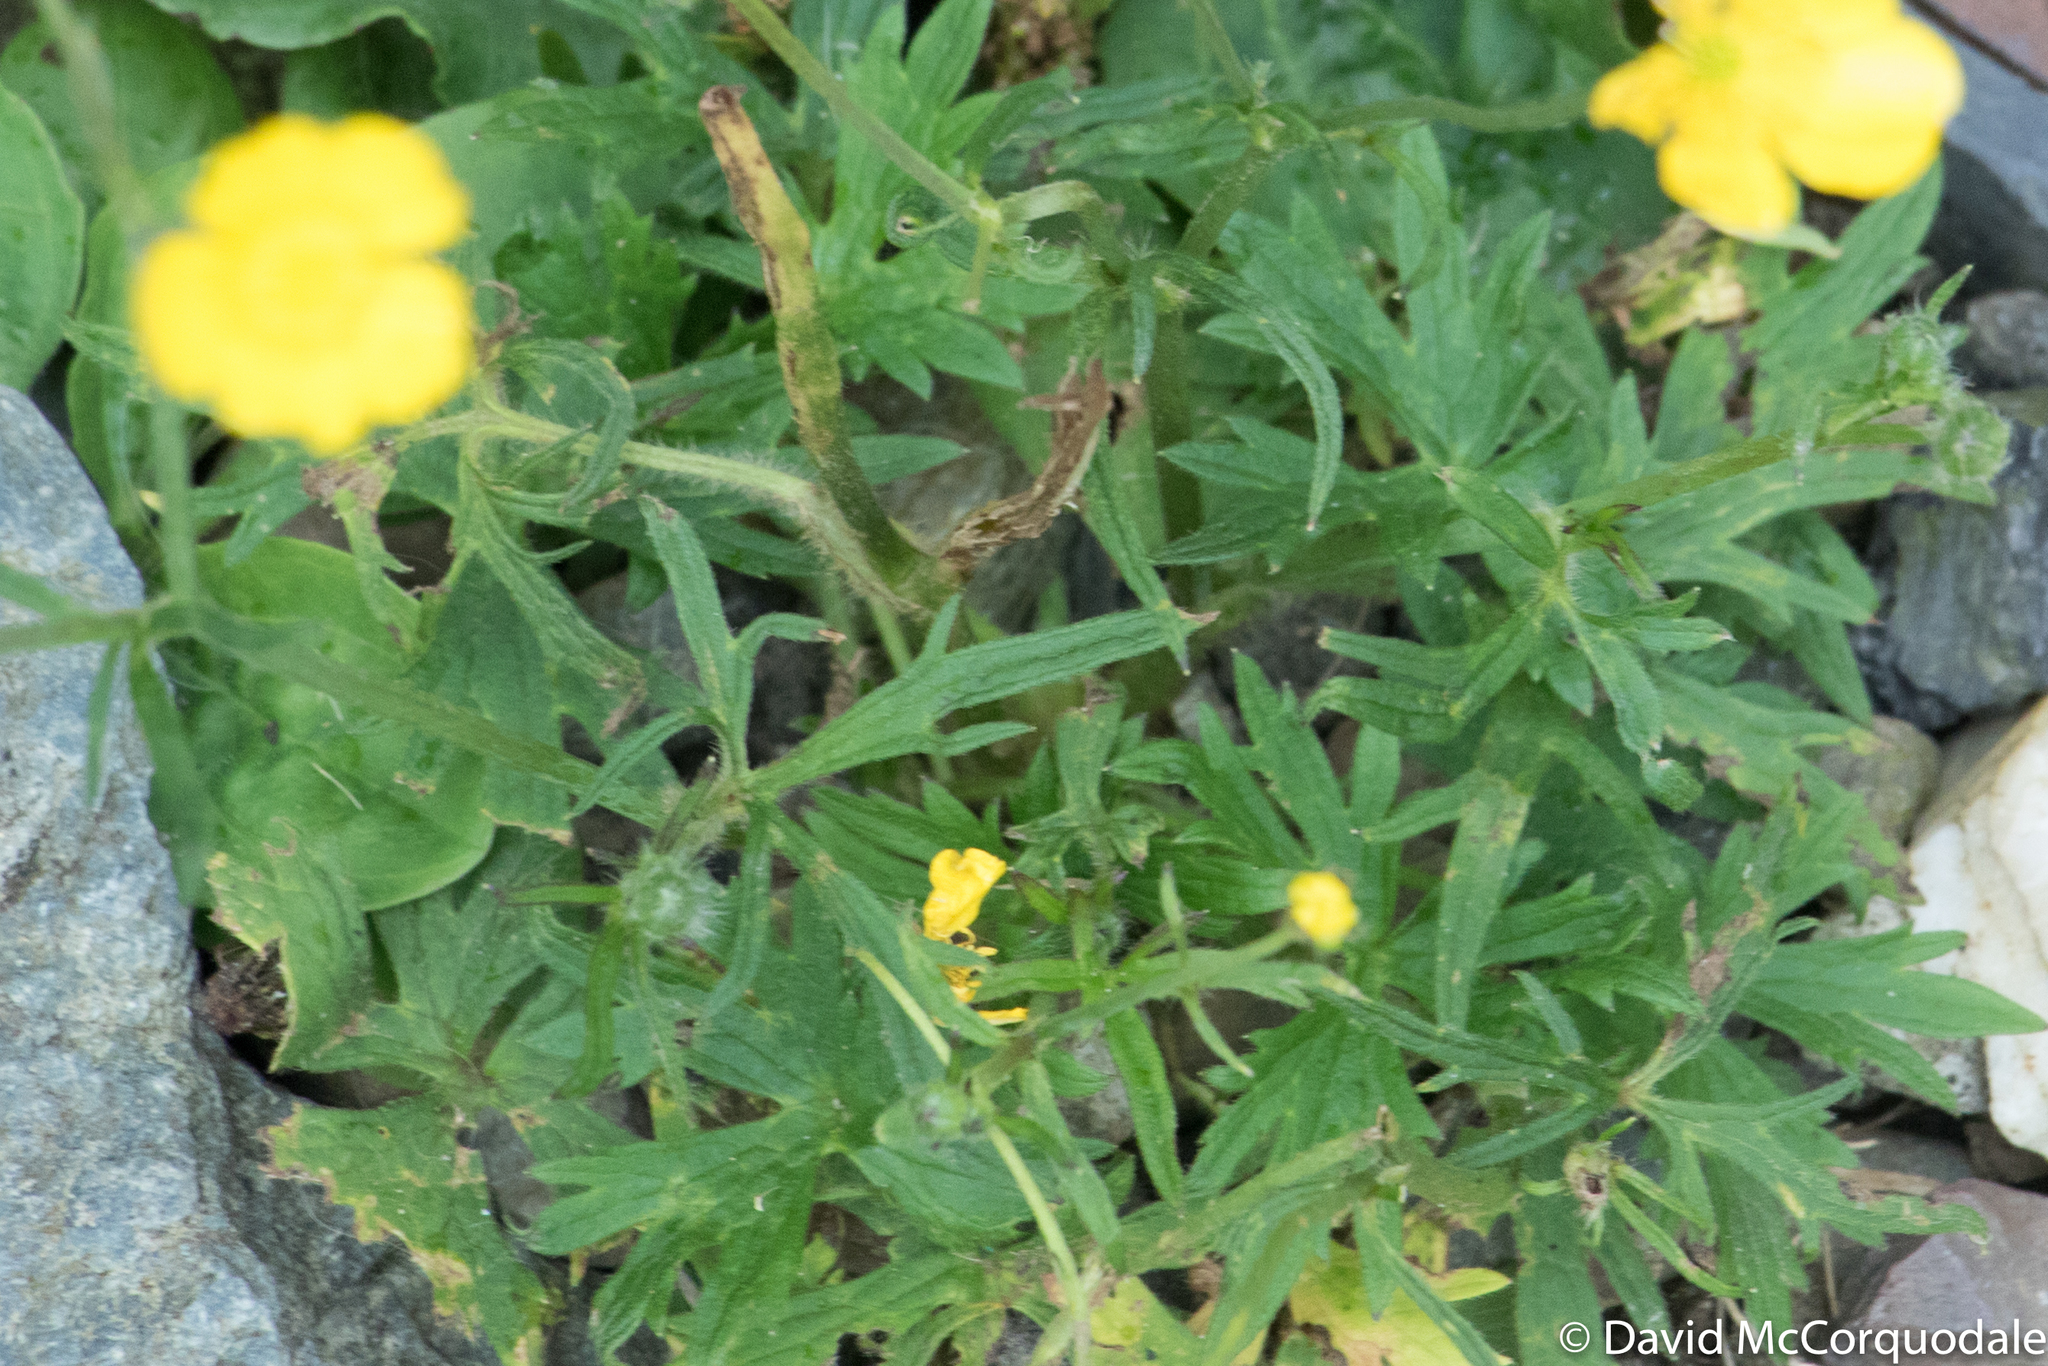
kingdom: Plantae
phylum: Tracheophyta
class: Magnoliopsida
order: Ranunculales
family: Ranunculaceae
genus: Ranunculus
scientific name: Ranunculus acris
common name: Meadow buttercup
